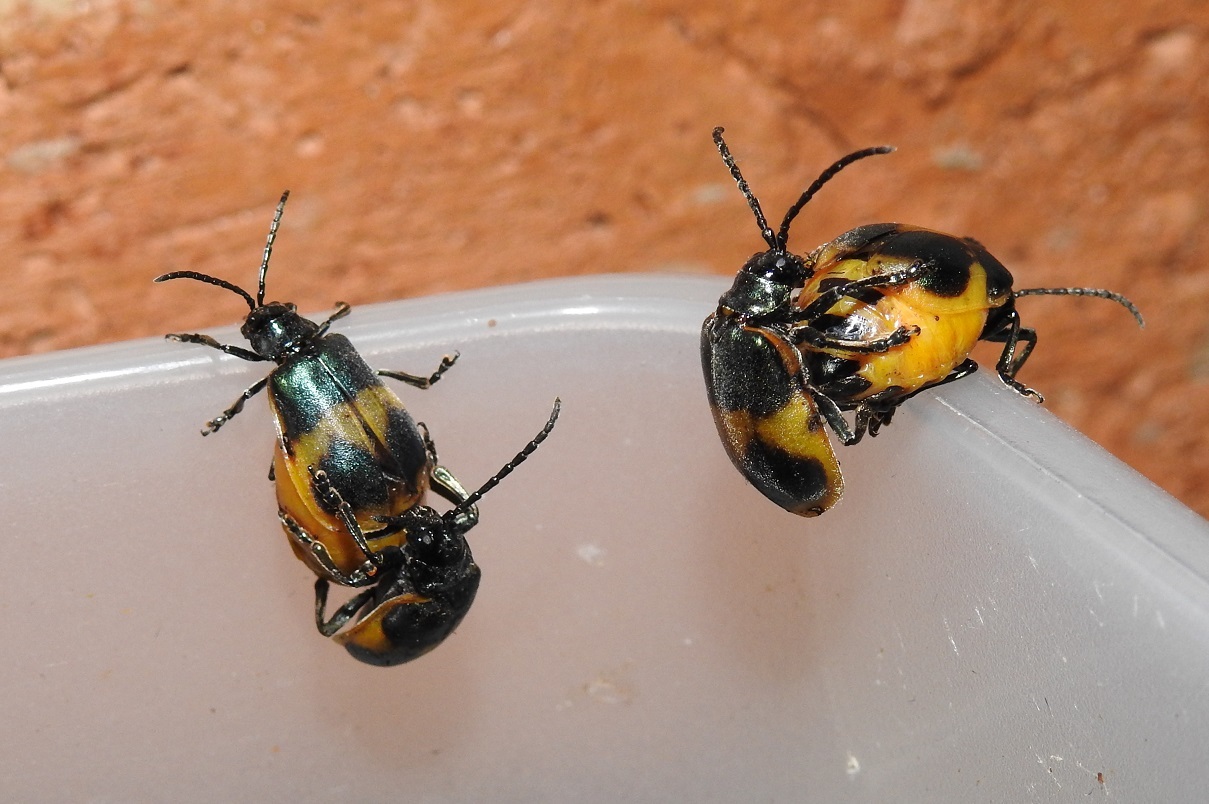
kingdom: Animalia
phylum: Arthropoda
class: Insecta
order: Coleoptera
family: Chrysomelidae
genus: Monocesta
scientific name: Monocesta
